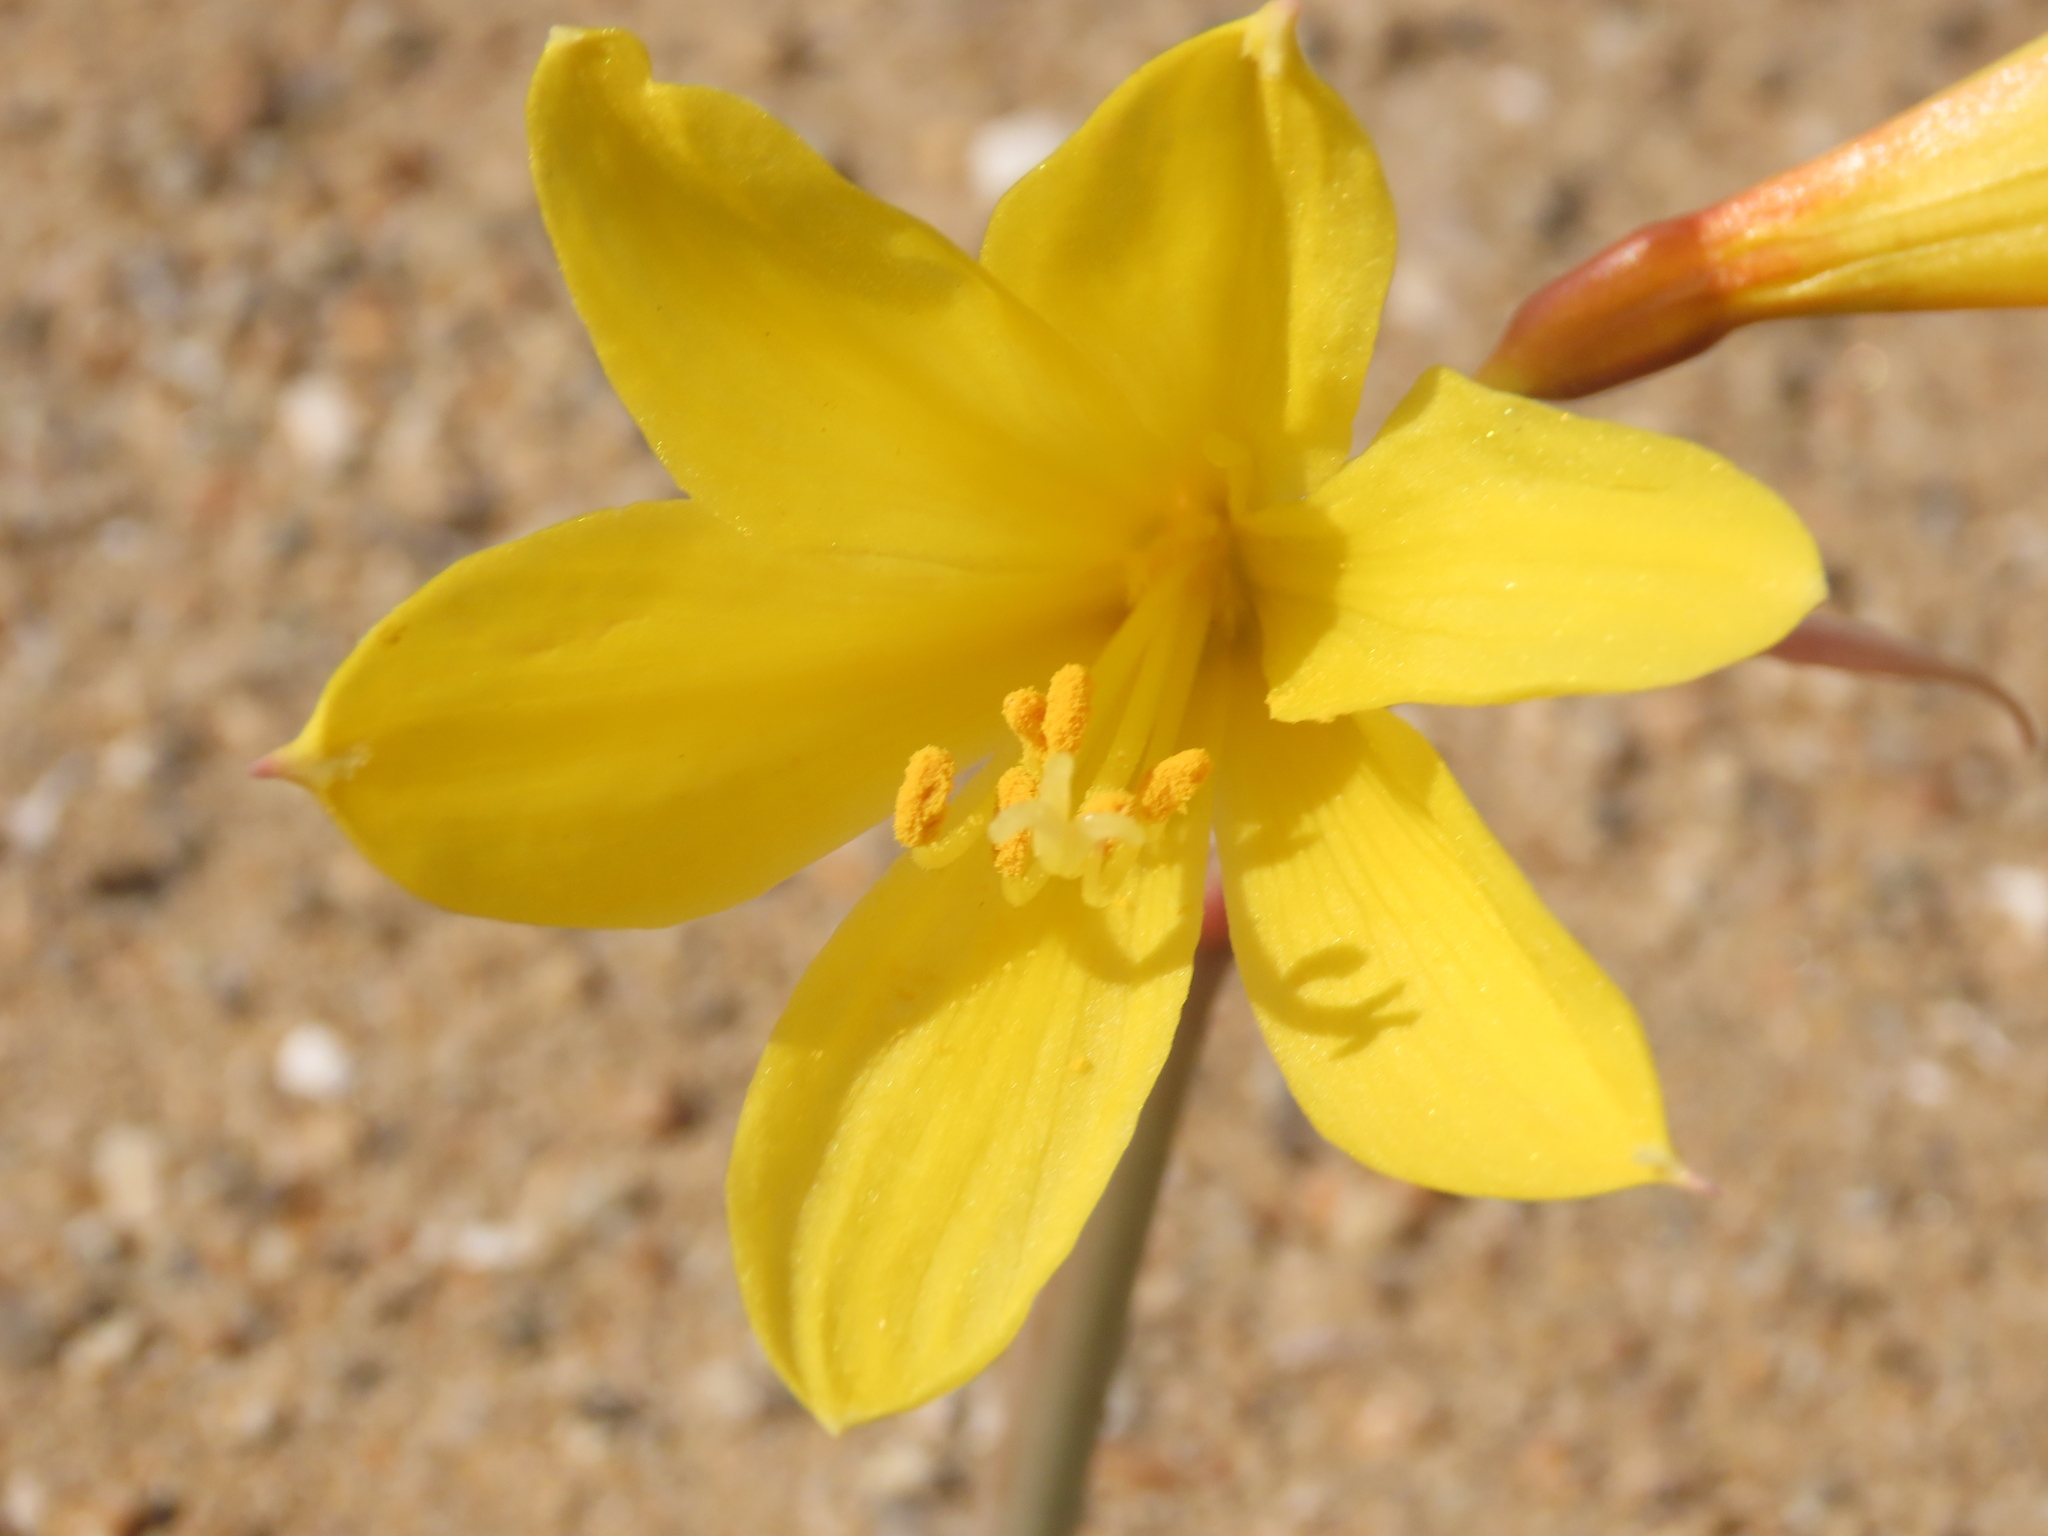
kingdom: Plantae
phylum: Tracheophyta
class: Liliopsida
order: Asparagales
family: Amaryllidaceae
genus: Zephyranthes
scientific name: Zephyranthes bagnoldii
